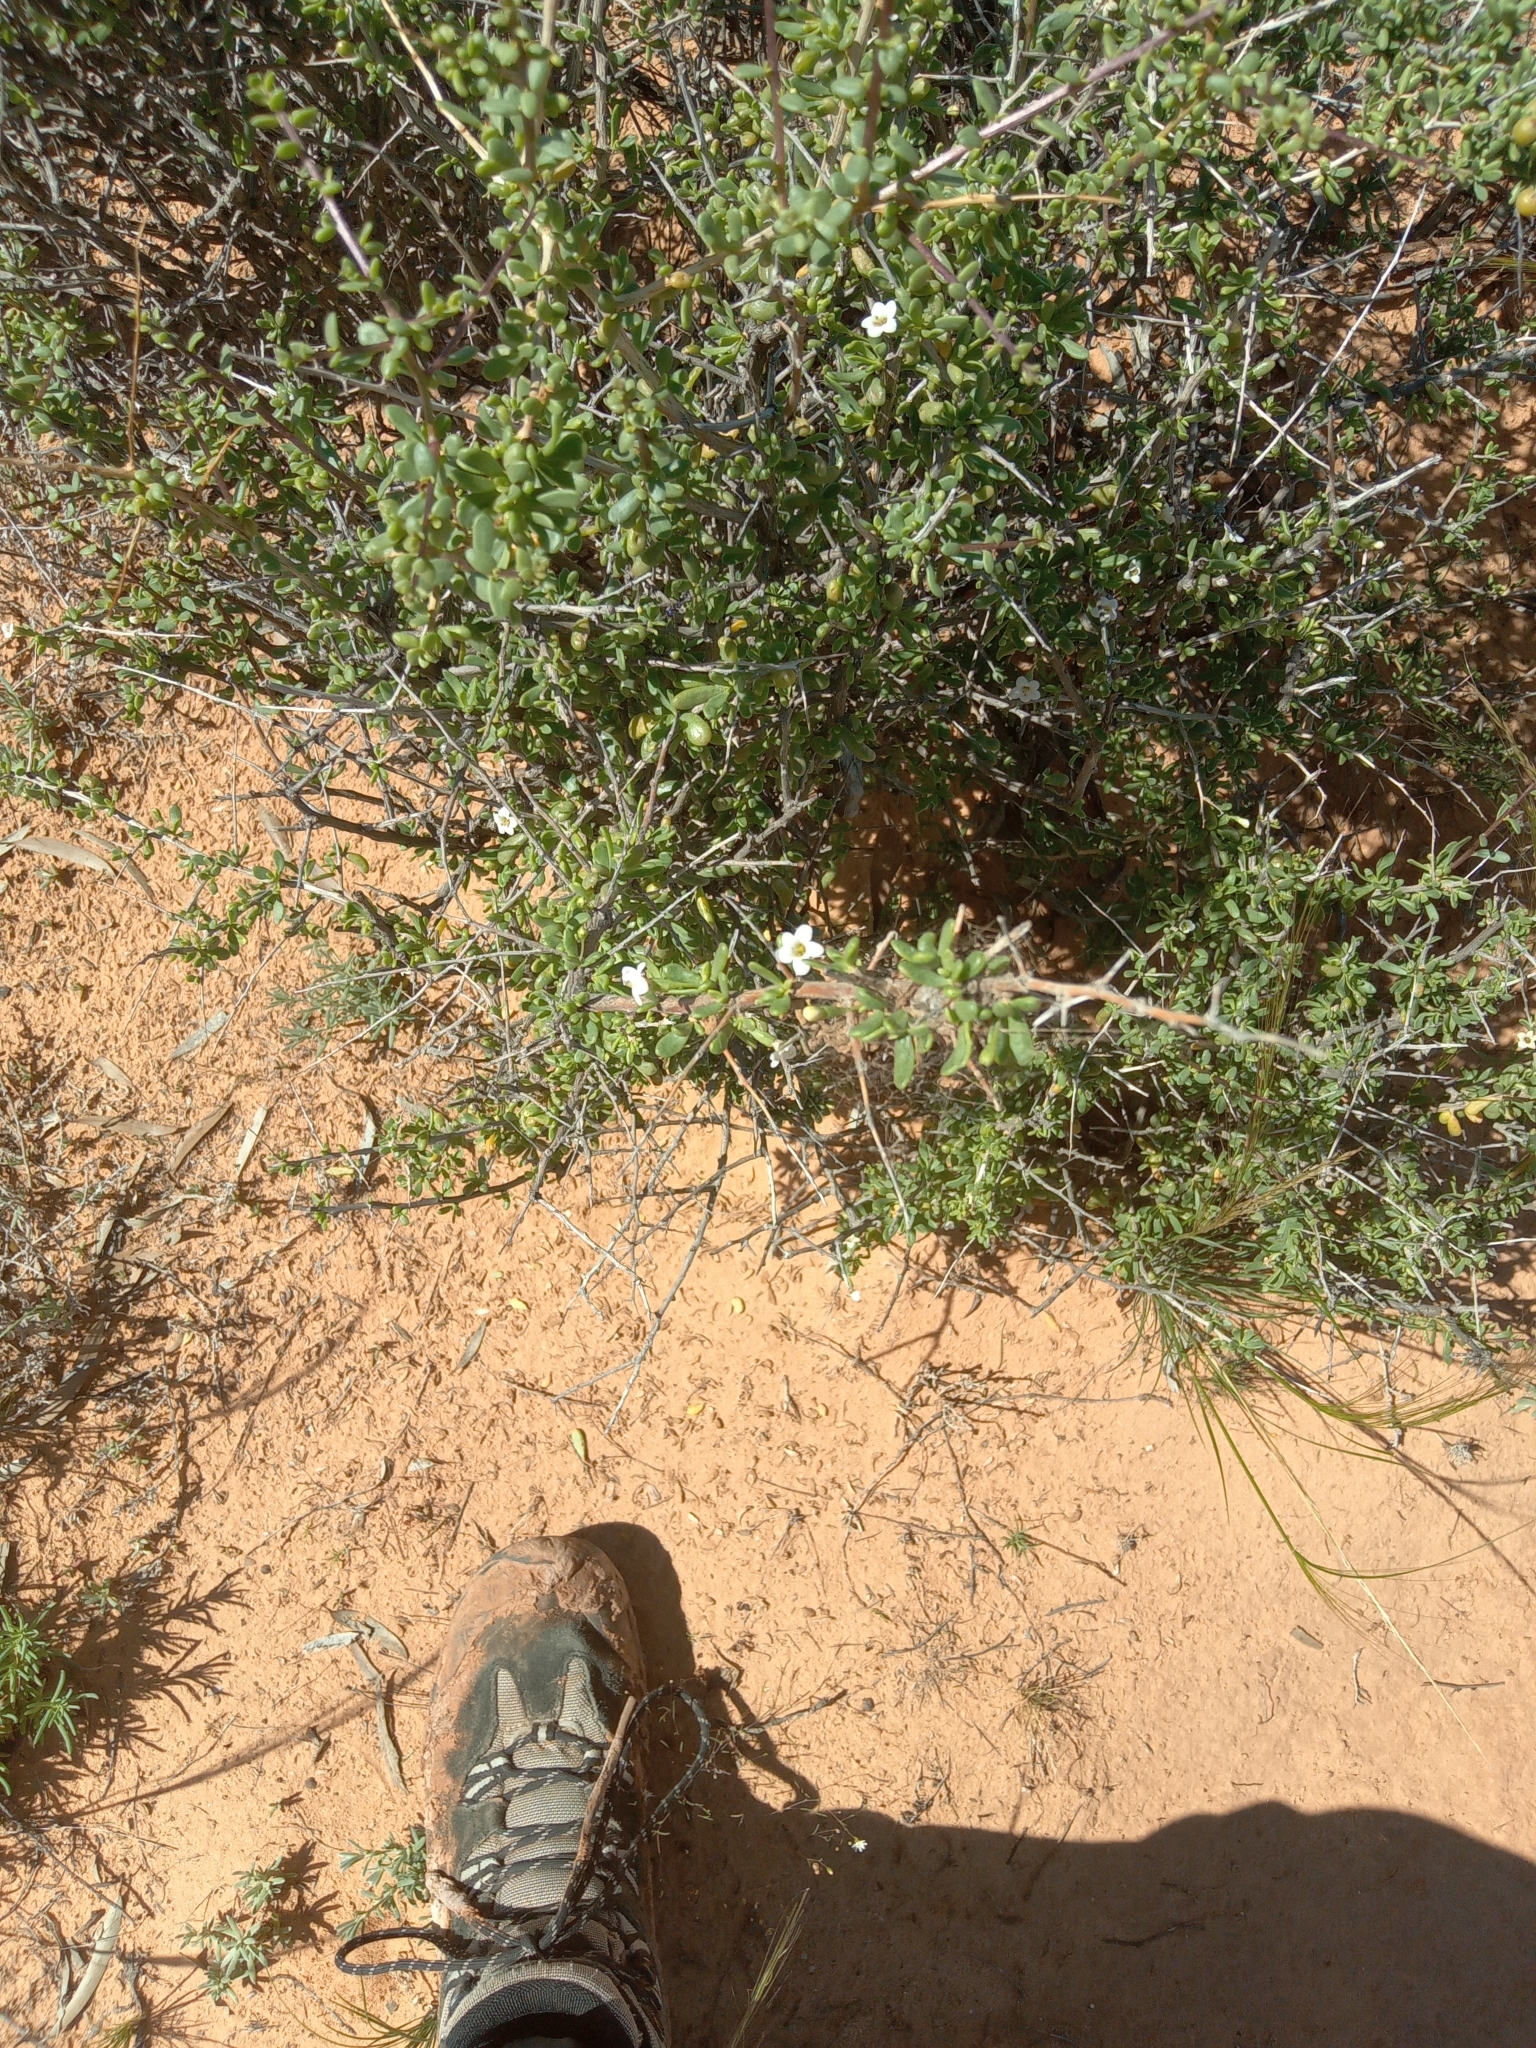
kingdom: Plantae
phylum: Tracheophyta
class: Magnoliopsida
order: Solanales
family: Solanaceae
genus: Lycium
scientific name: Lycium australe
